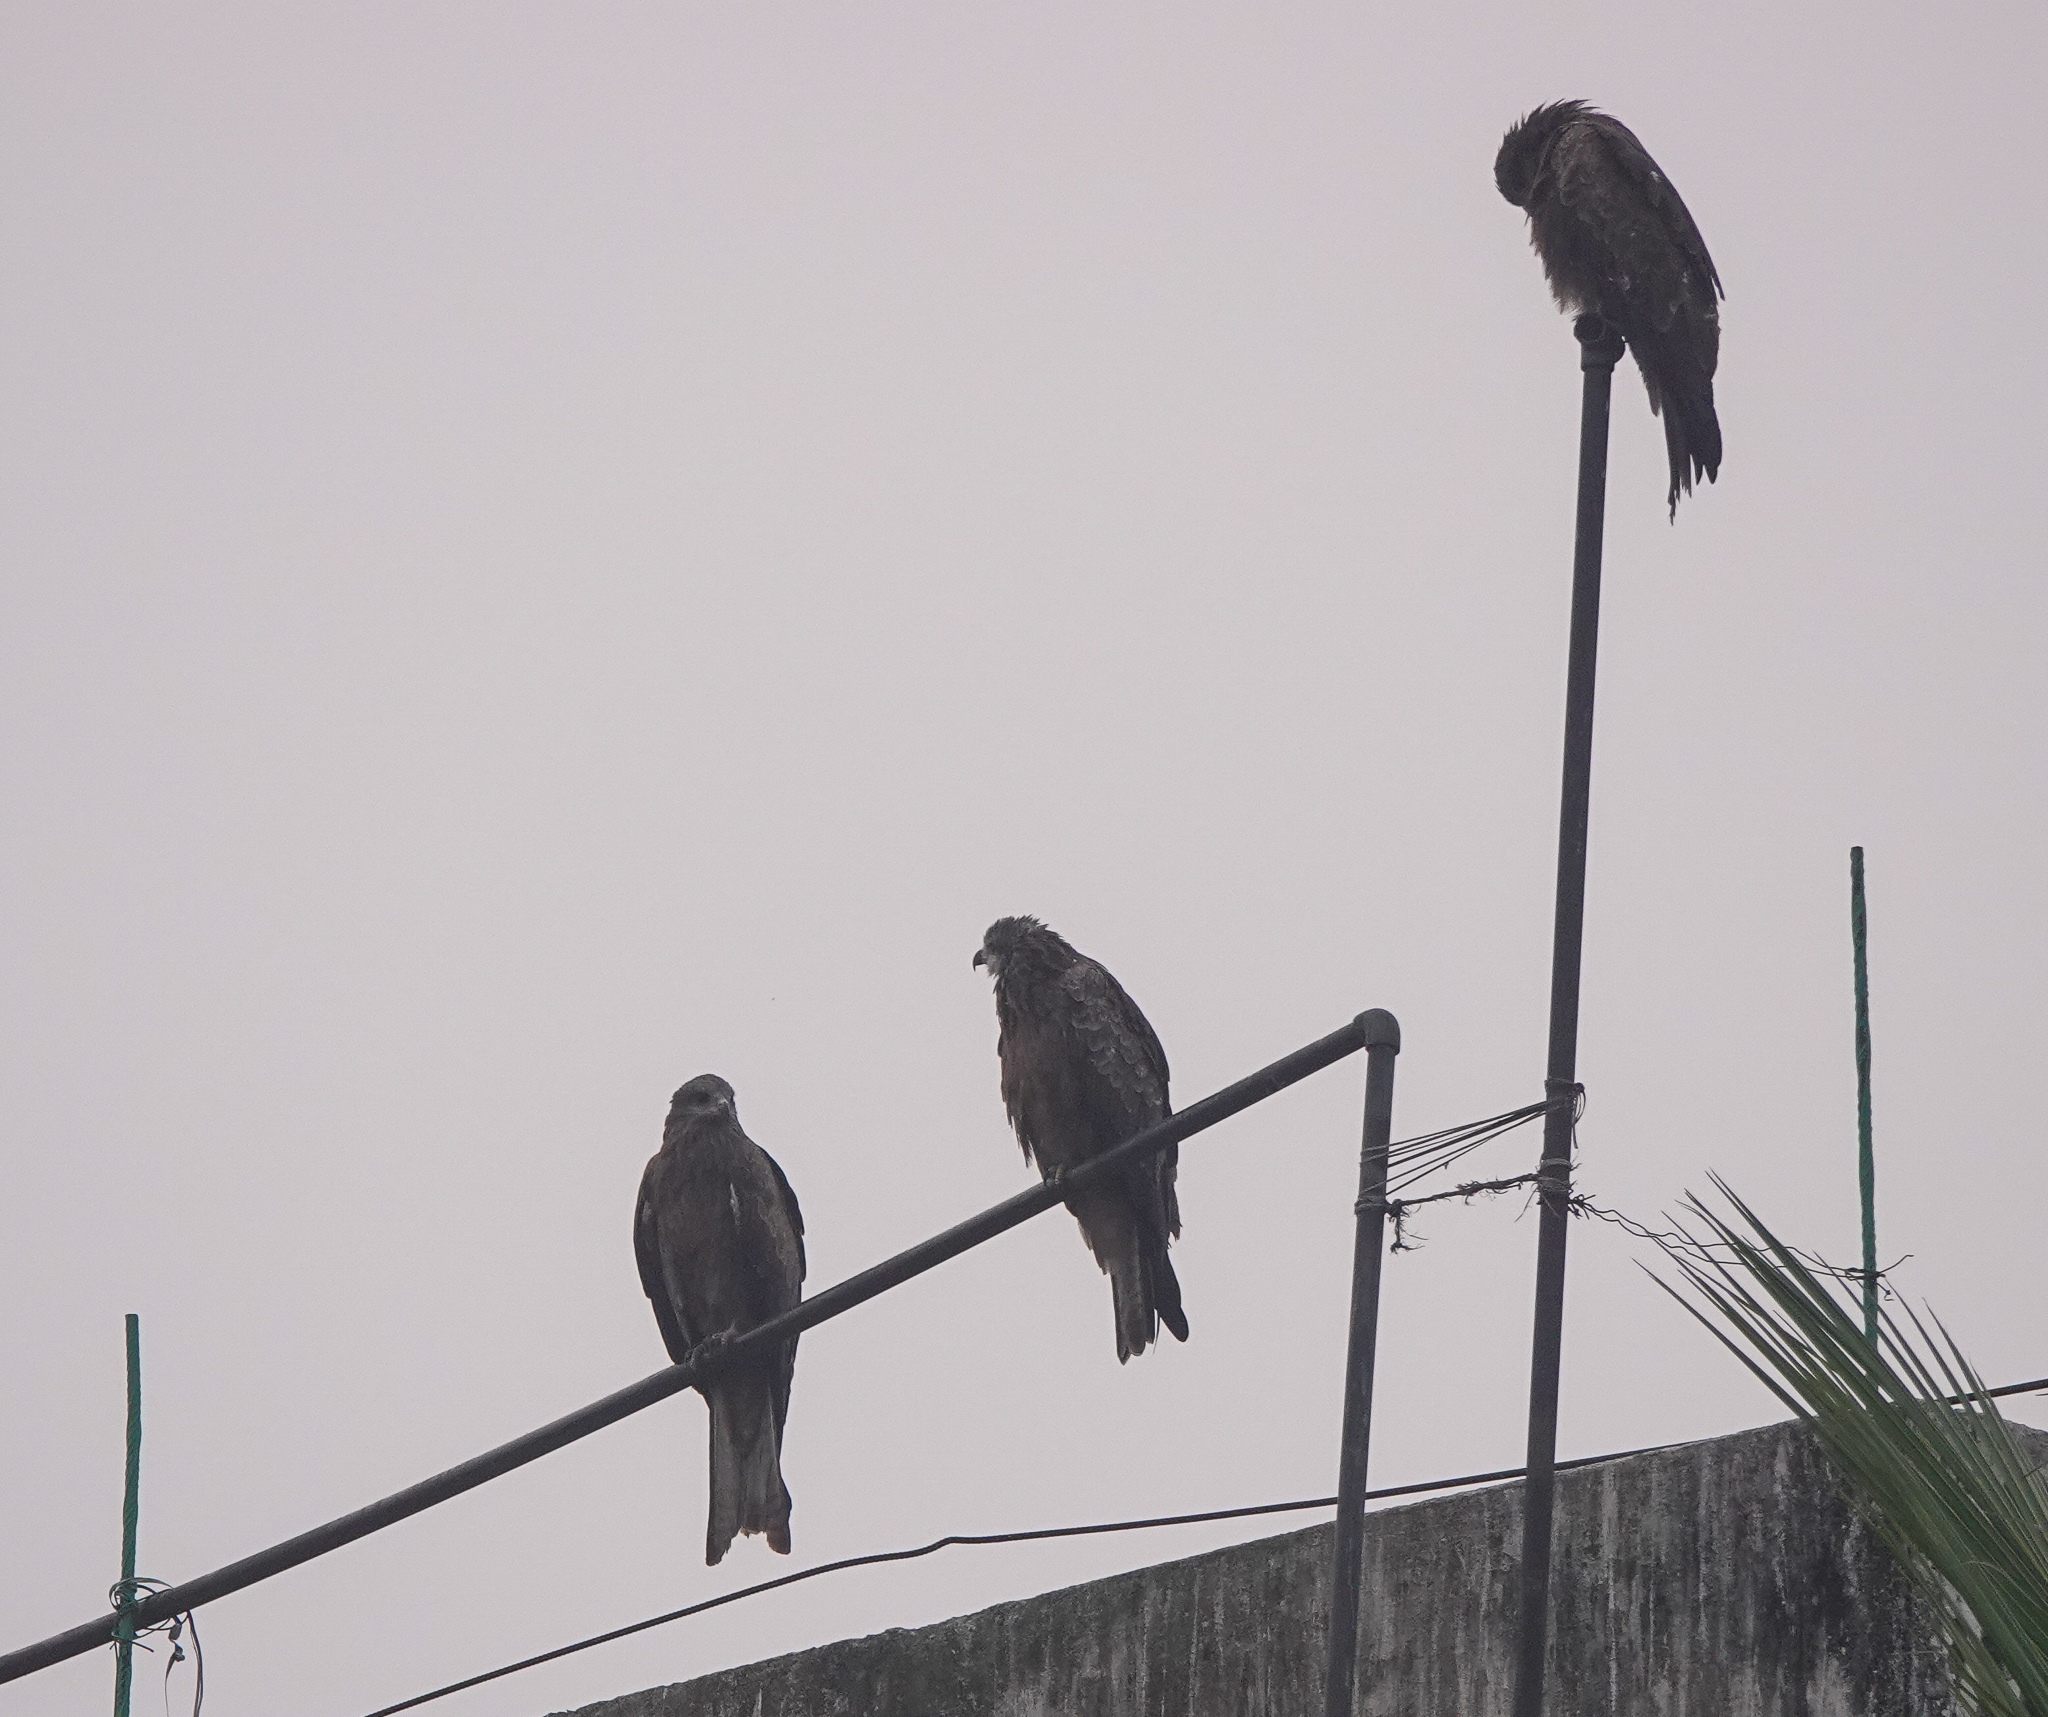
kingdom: Animalia
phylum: Chordata
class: Aves
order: Accipitriformes
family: Accipitridae
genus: Milvus
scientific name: Milvus migrans
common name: Black kite
